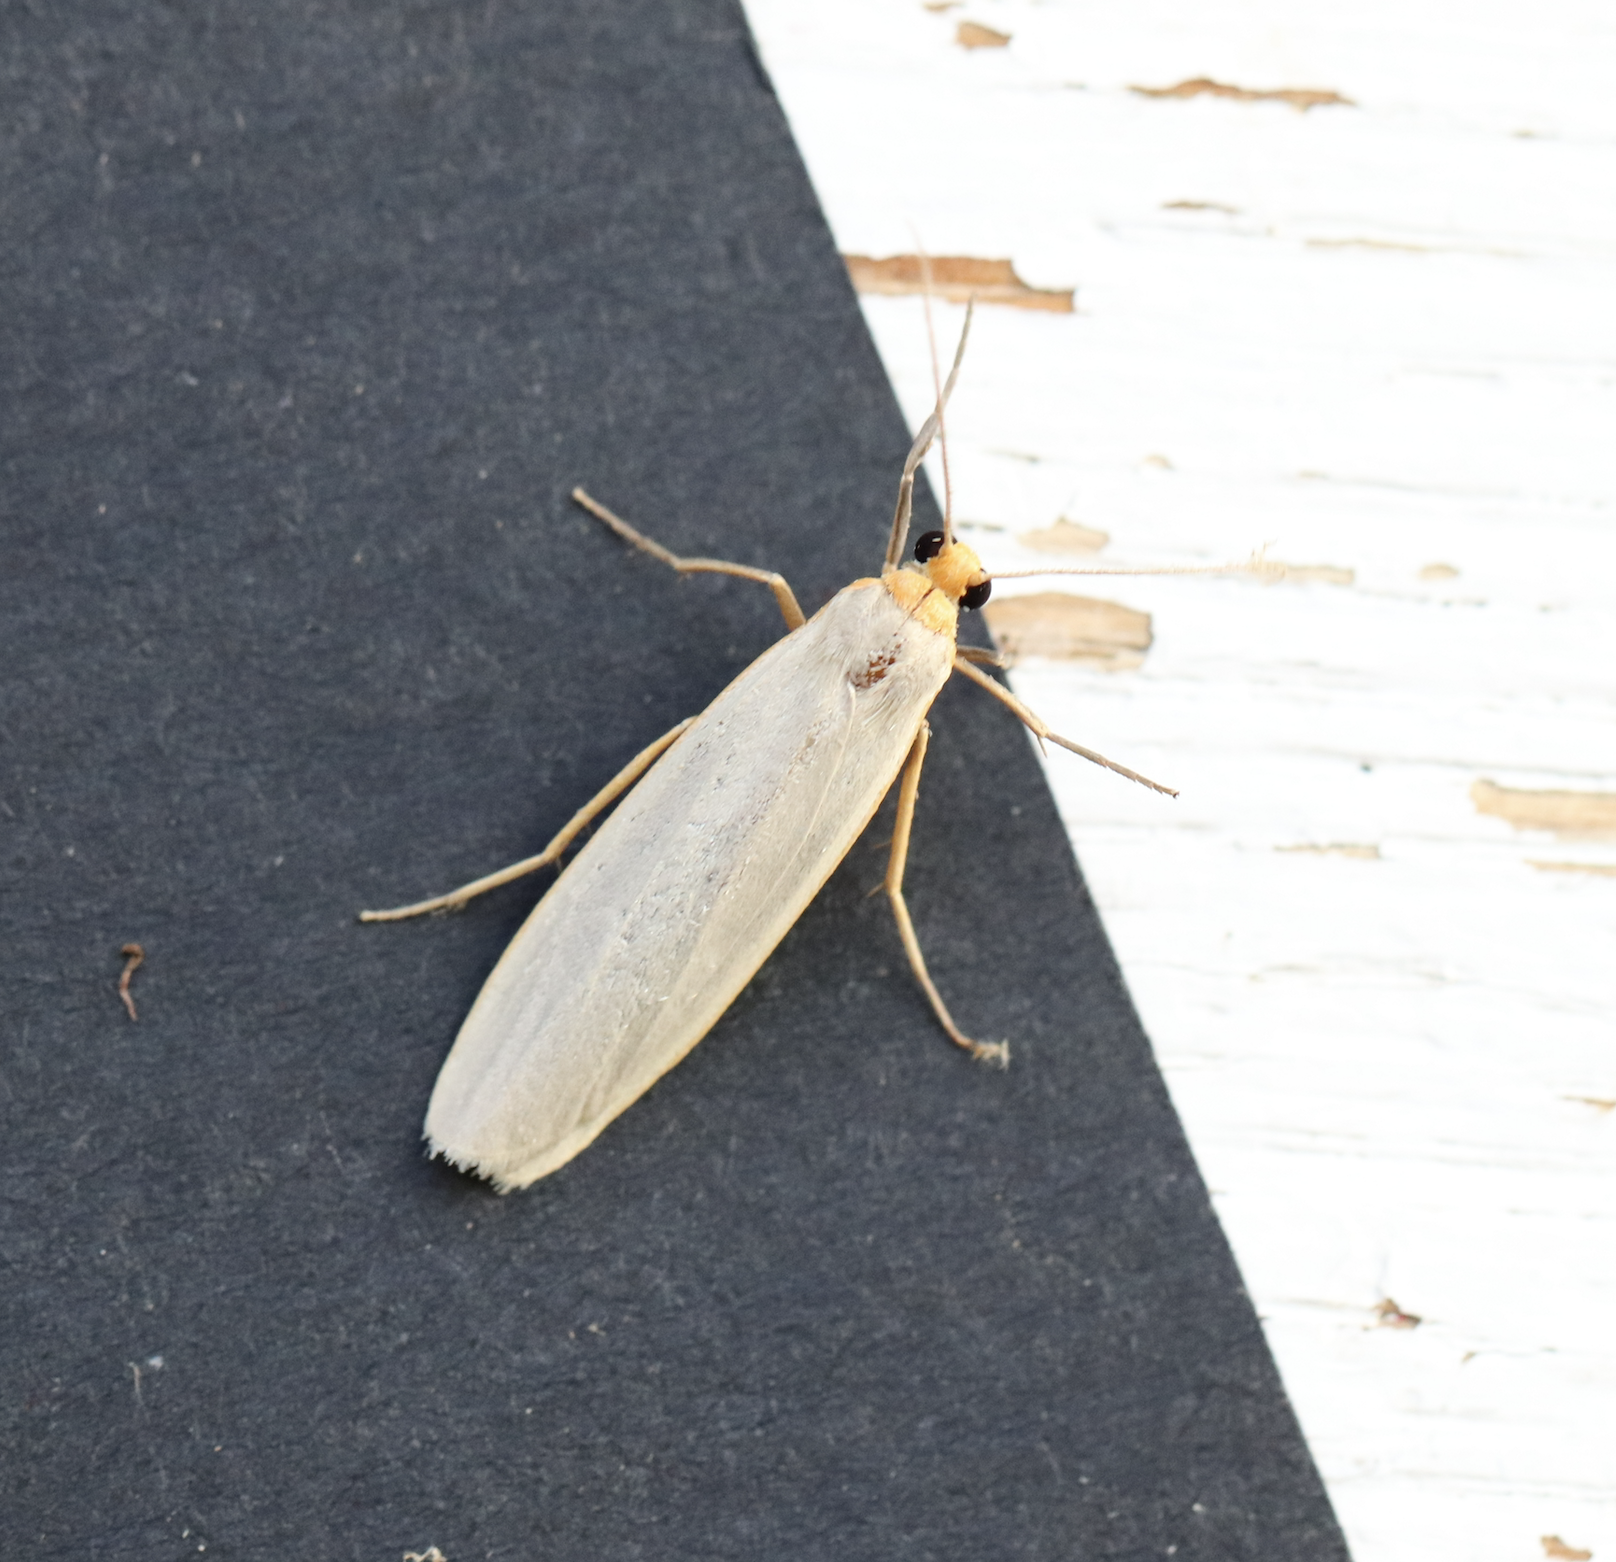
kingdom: Animalia
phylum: Arthropoda
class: Insecta
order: Lepidoptera
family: Erebidae
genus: Manulea
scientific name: Manulea complana
